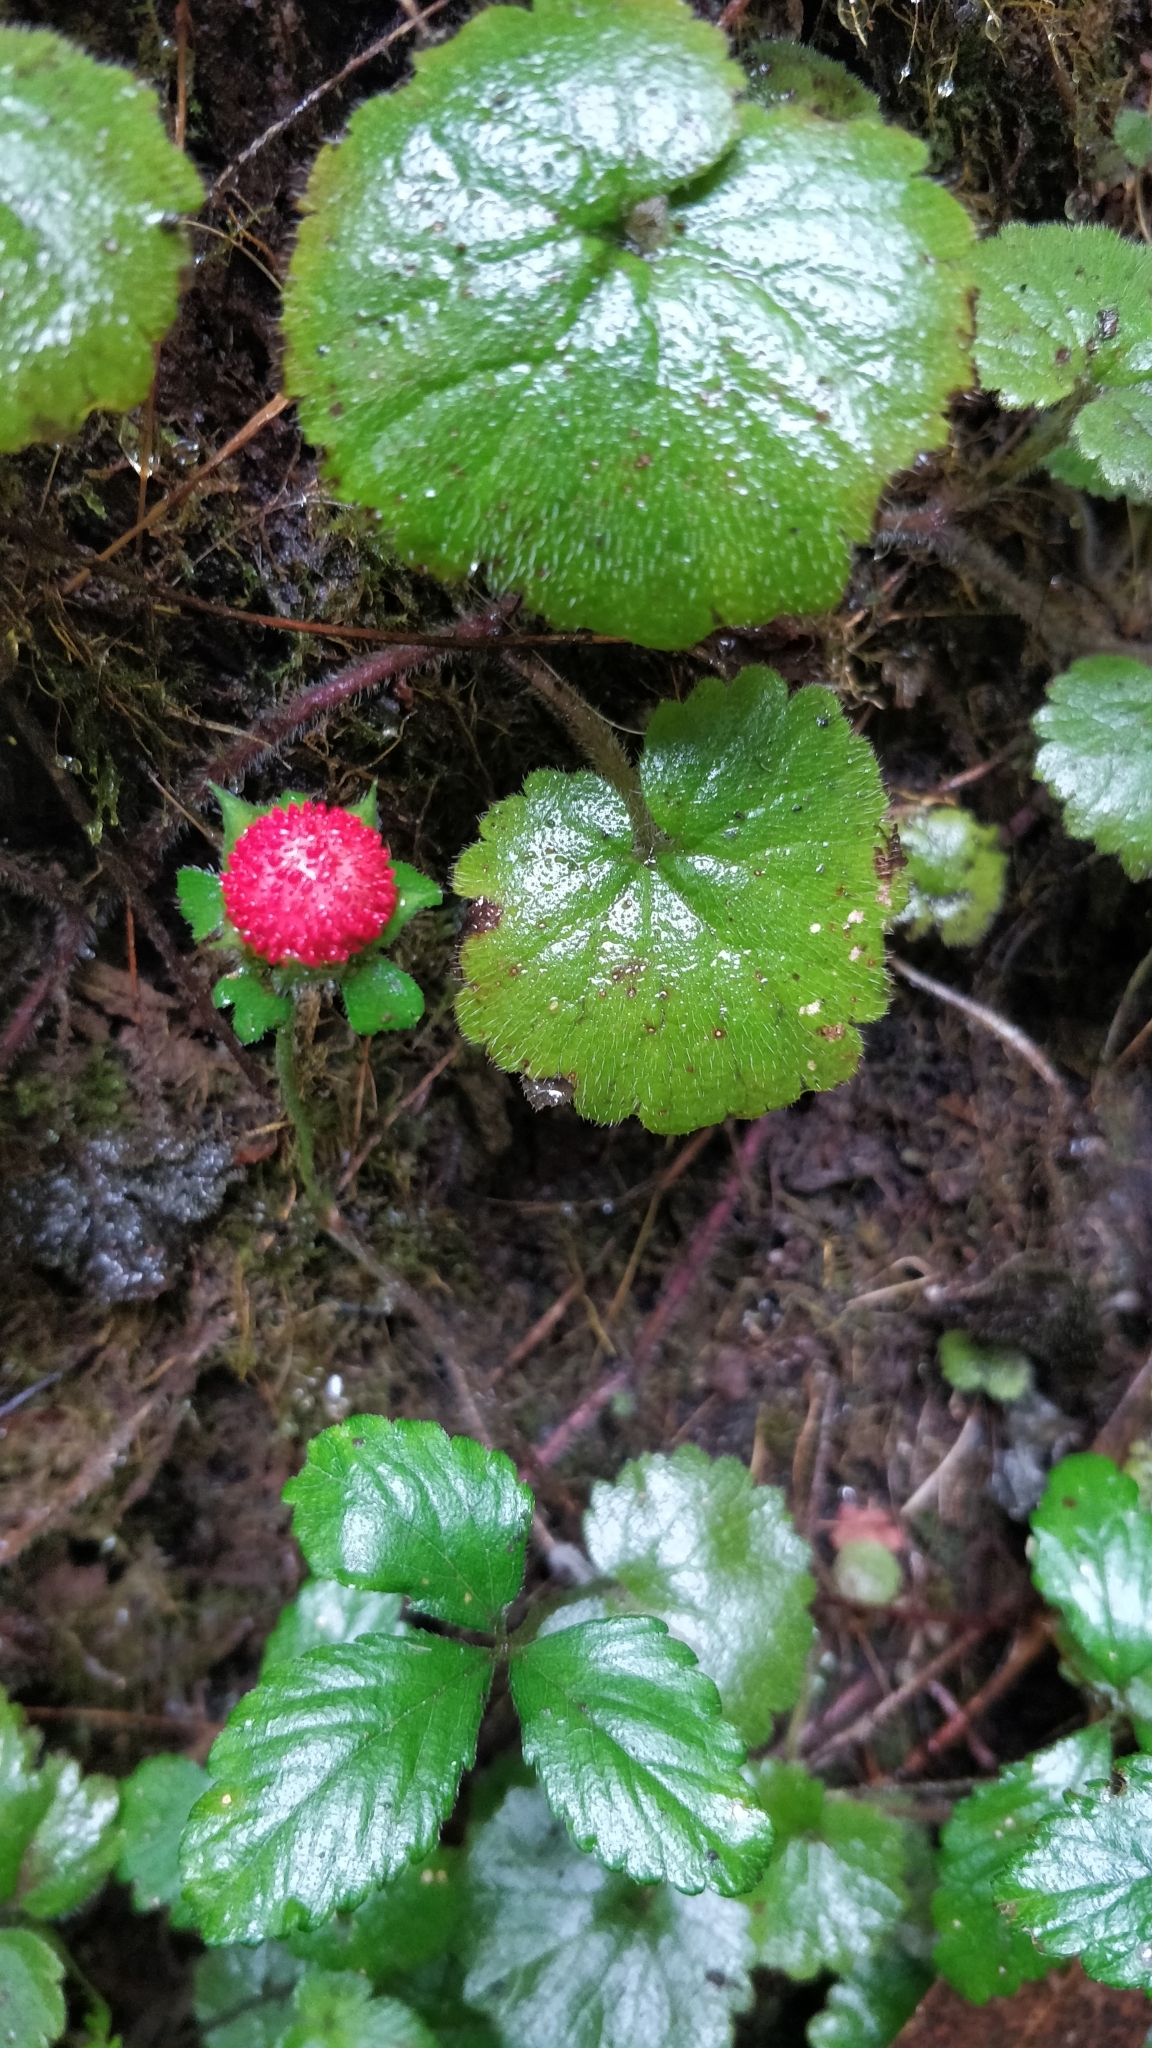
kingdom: Plantae
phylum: Tracheophyta
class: Magnoliopsida
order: Rosales
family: Rosaceae
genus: Potentilla
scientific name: Potentilla indica
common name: Yellow-flowered strawberry
